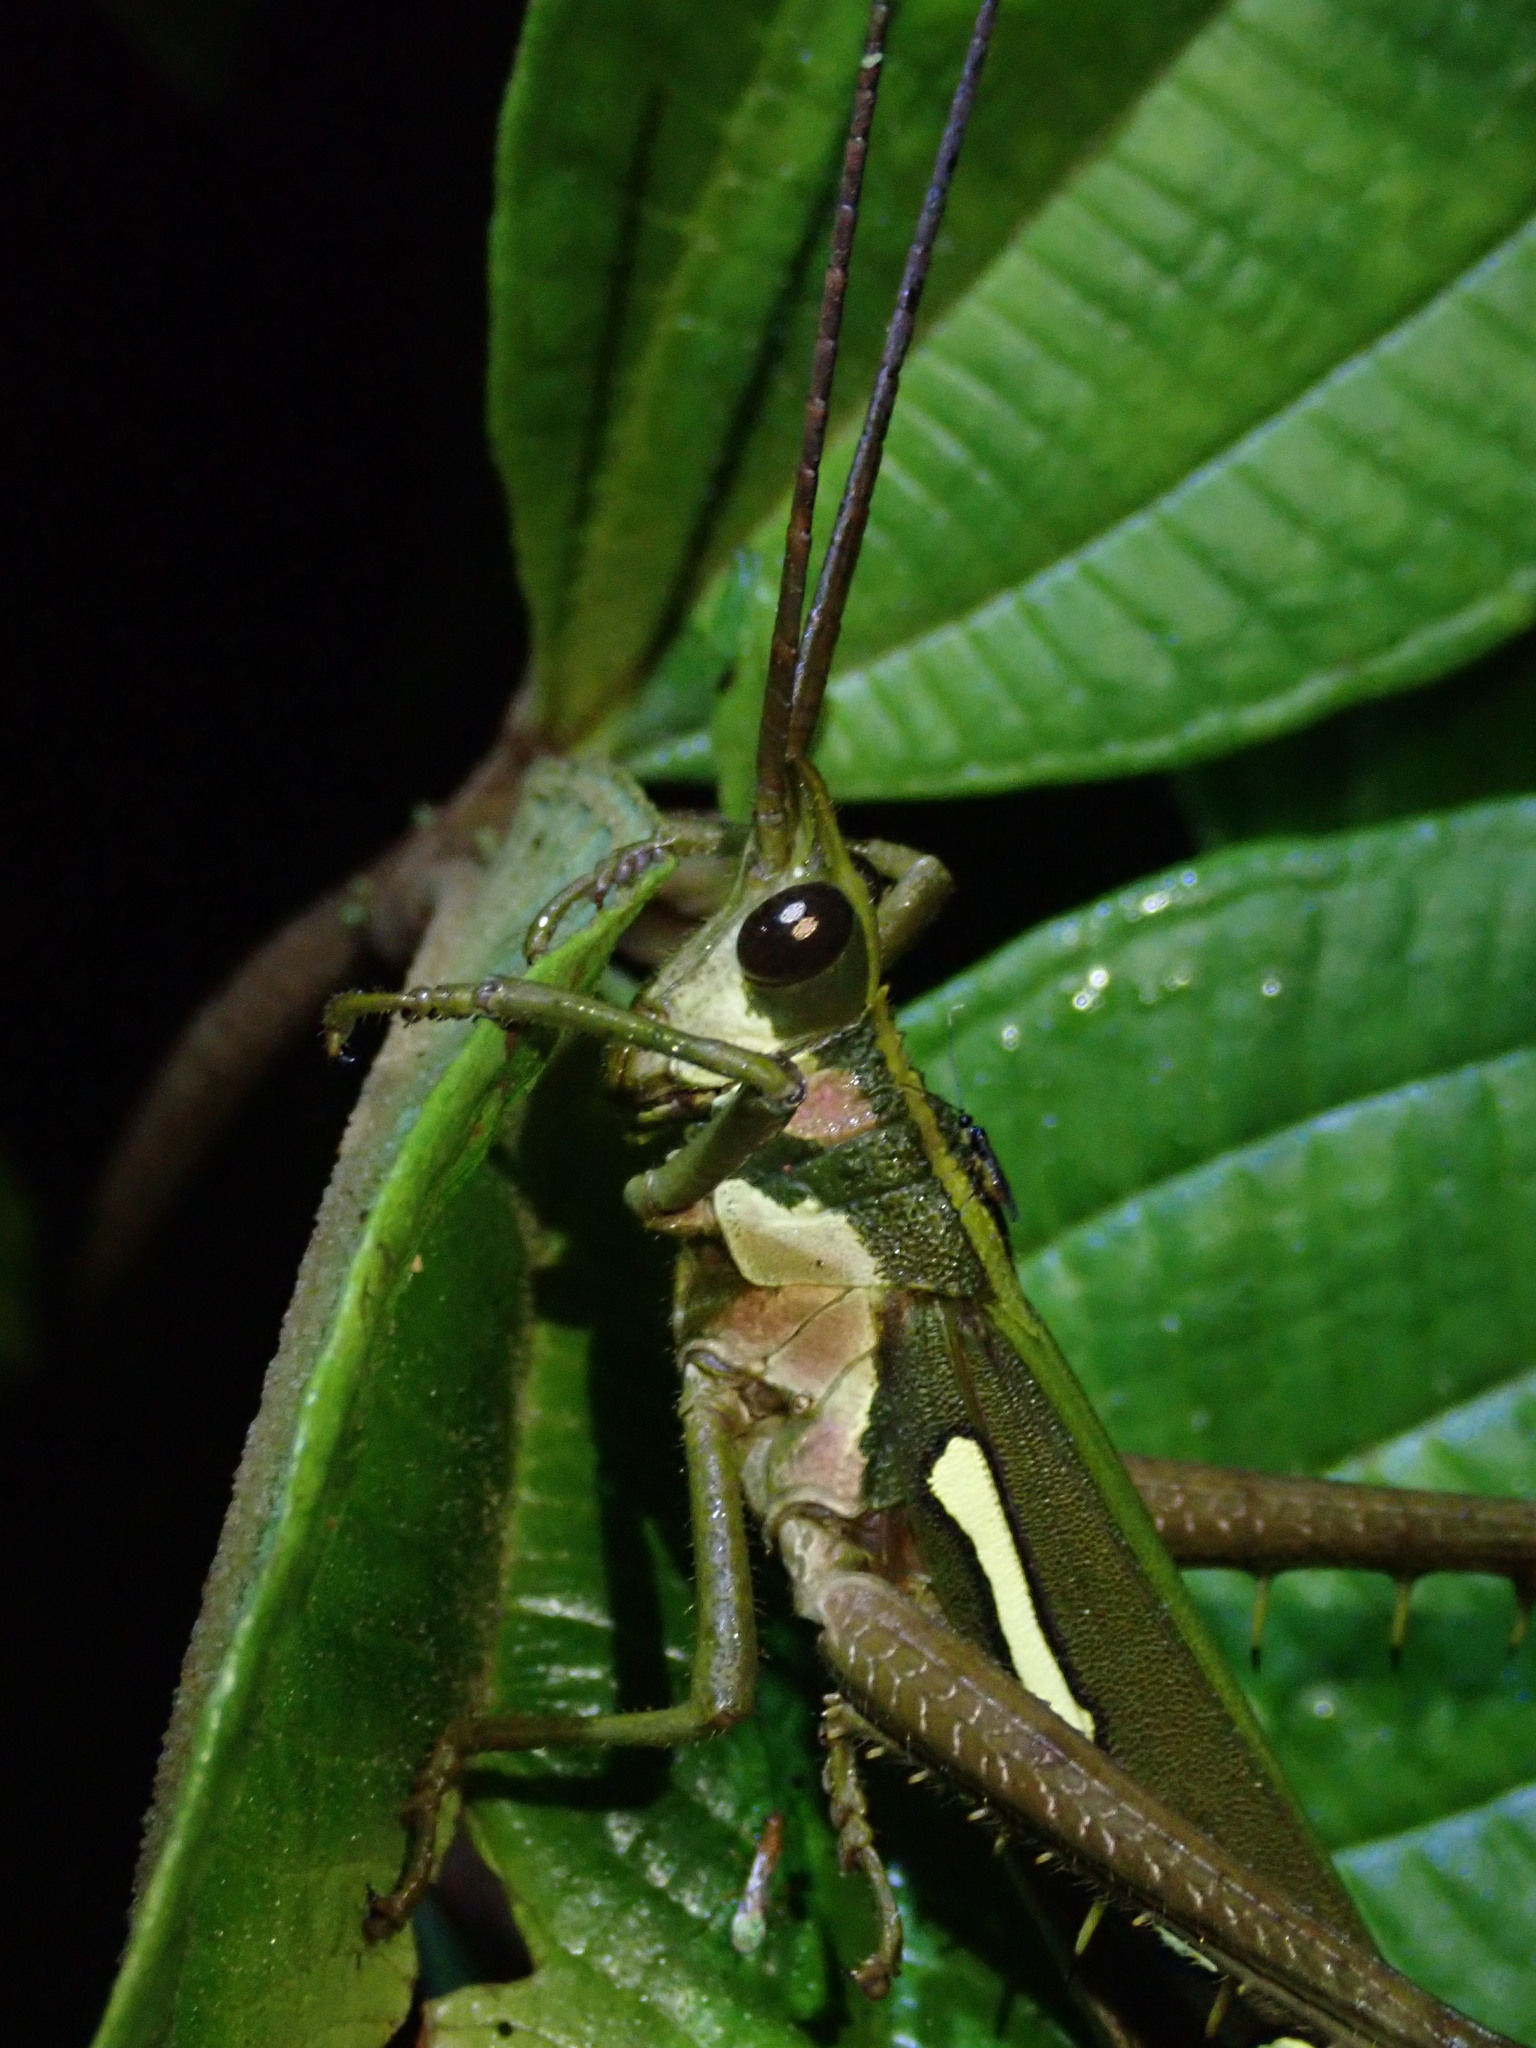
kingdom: Animalia
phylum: Arthropoda
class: Insecta
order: Orthoptera
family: Romaleidae
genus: Aeolacris
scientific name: Aeolacris octomaculata
